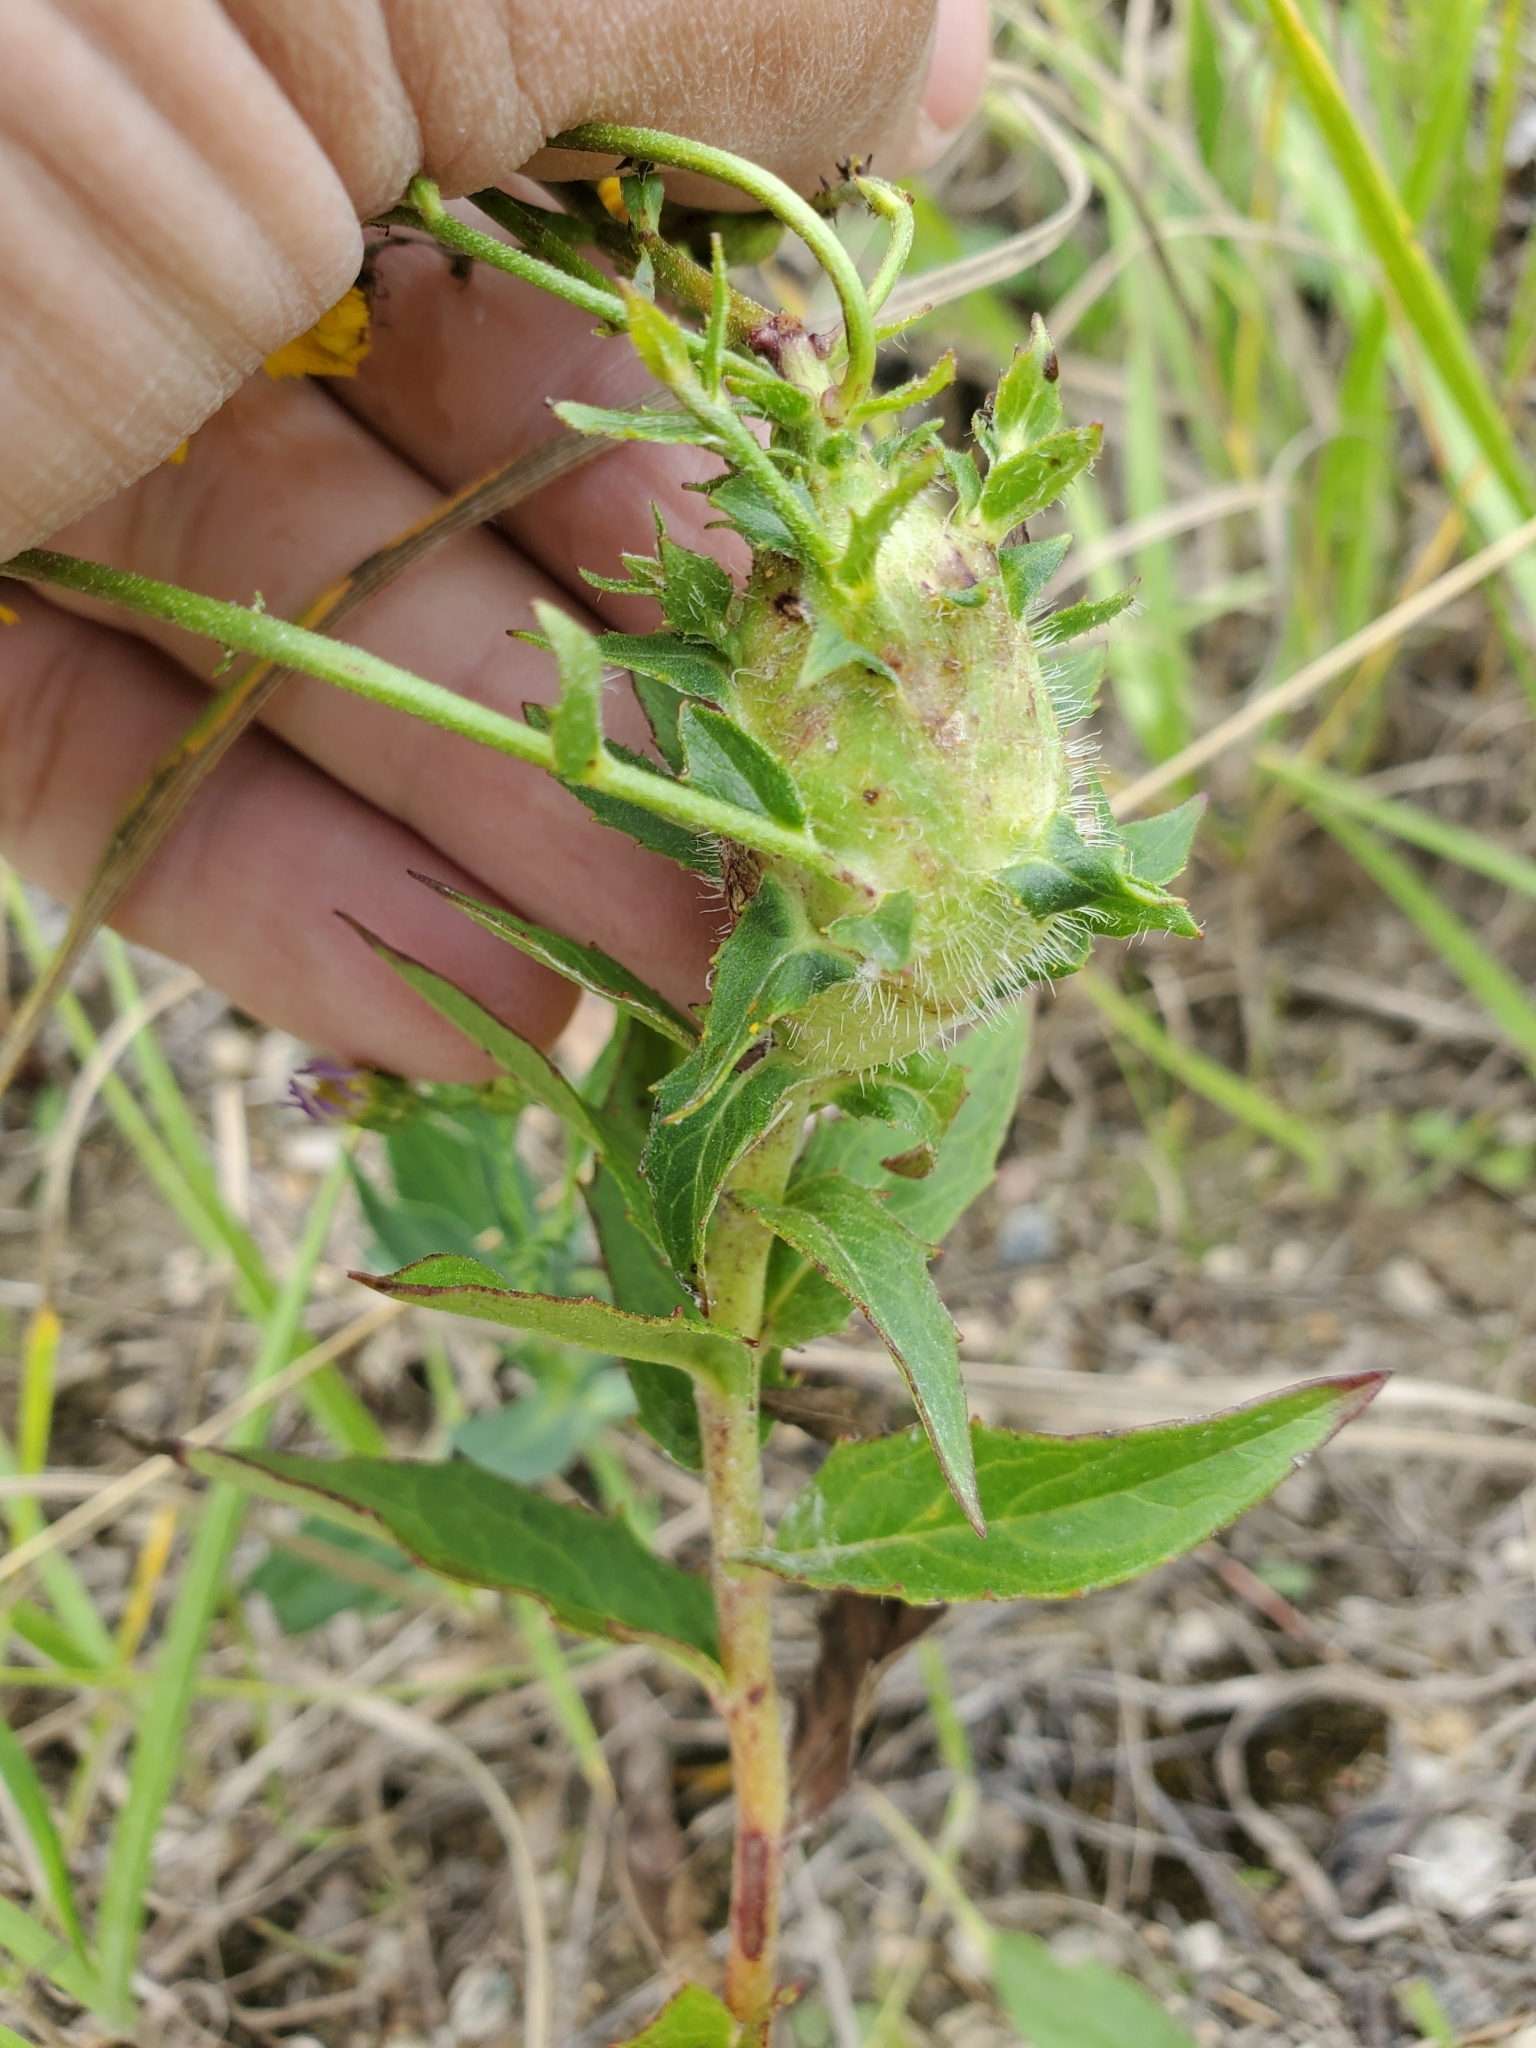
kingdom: Animalia
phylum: Arthropoda
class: Insecta
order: Hymenoptera
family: Cynipidae
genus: Aulacidea
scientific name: Aulacidea hieracii
